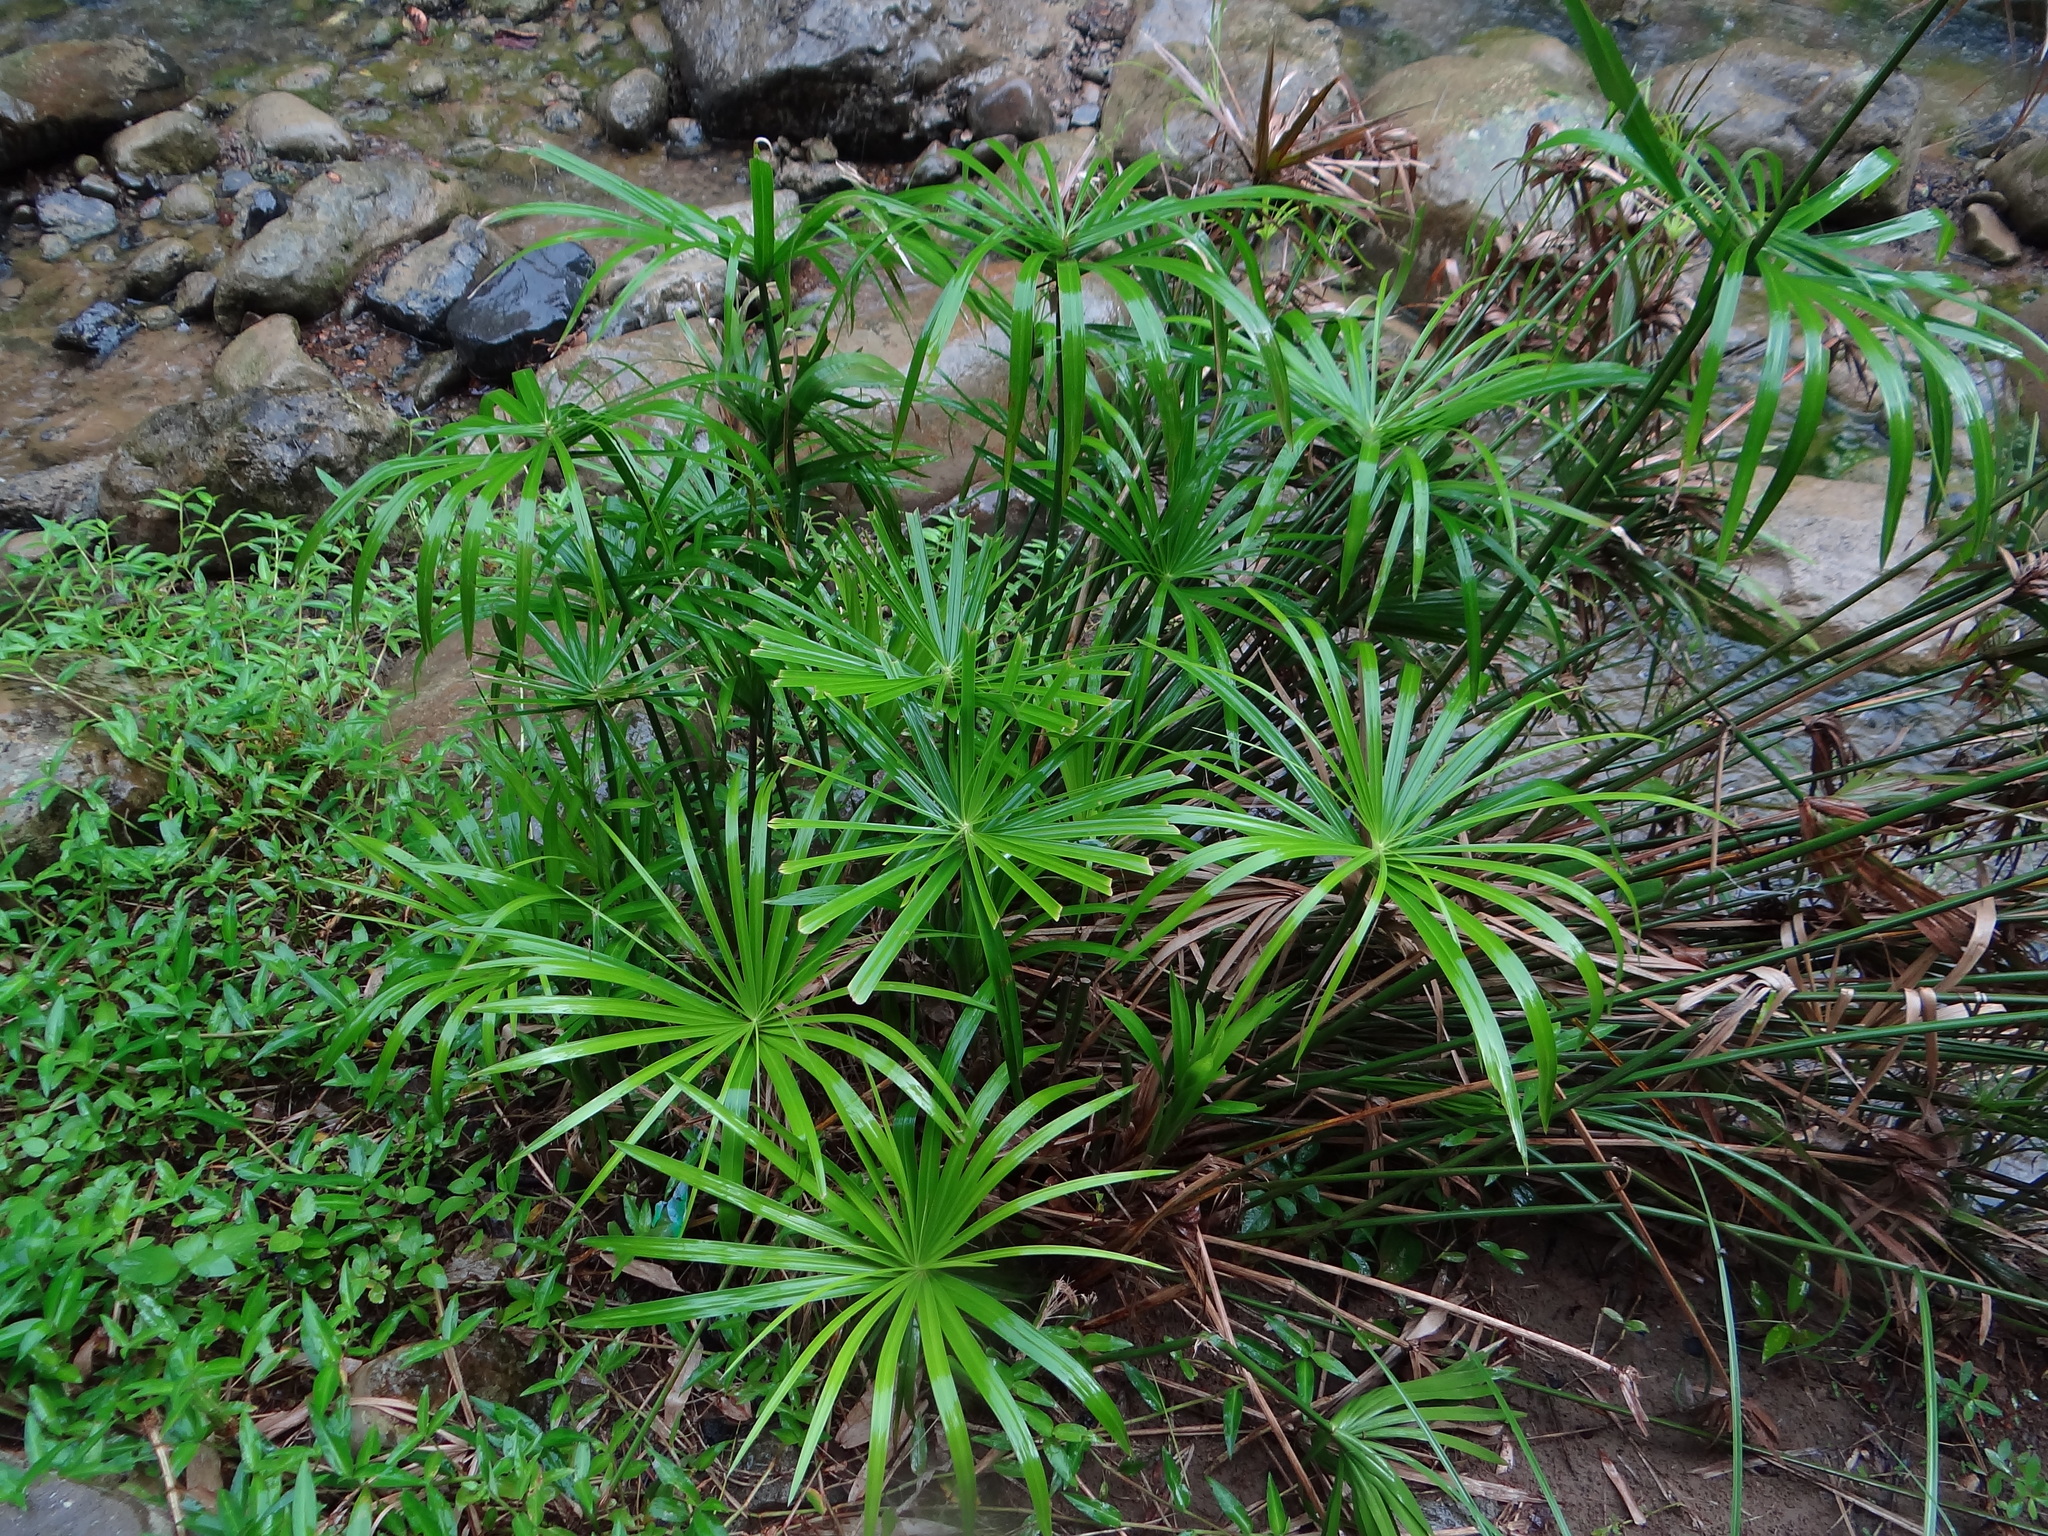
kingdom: Plantae
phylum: Tracheophyta
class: Liliopsida
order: Poales
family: Cyperaceae
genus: Cyperus
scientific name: Cyperus alternifolius
